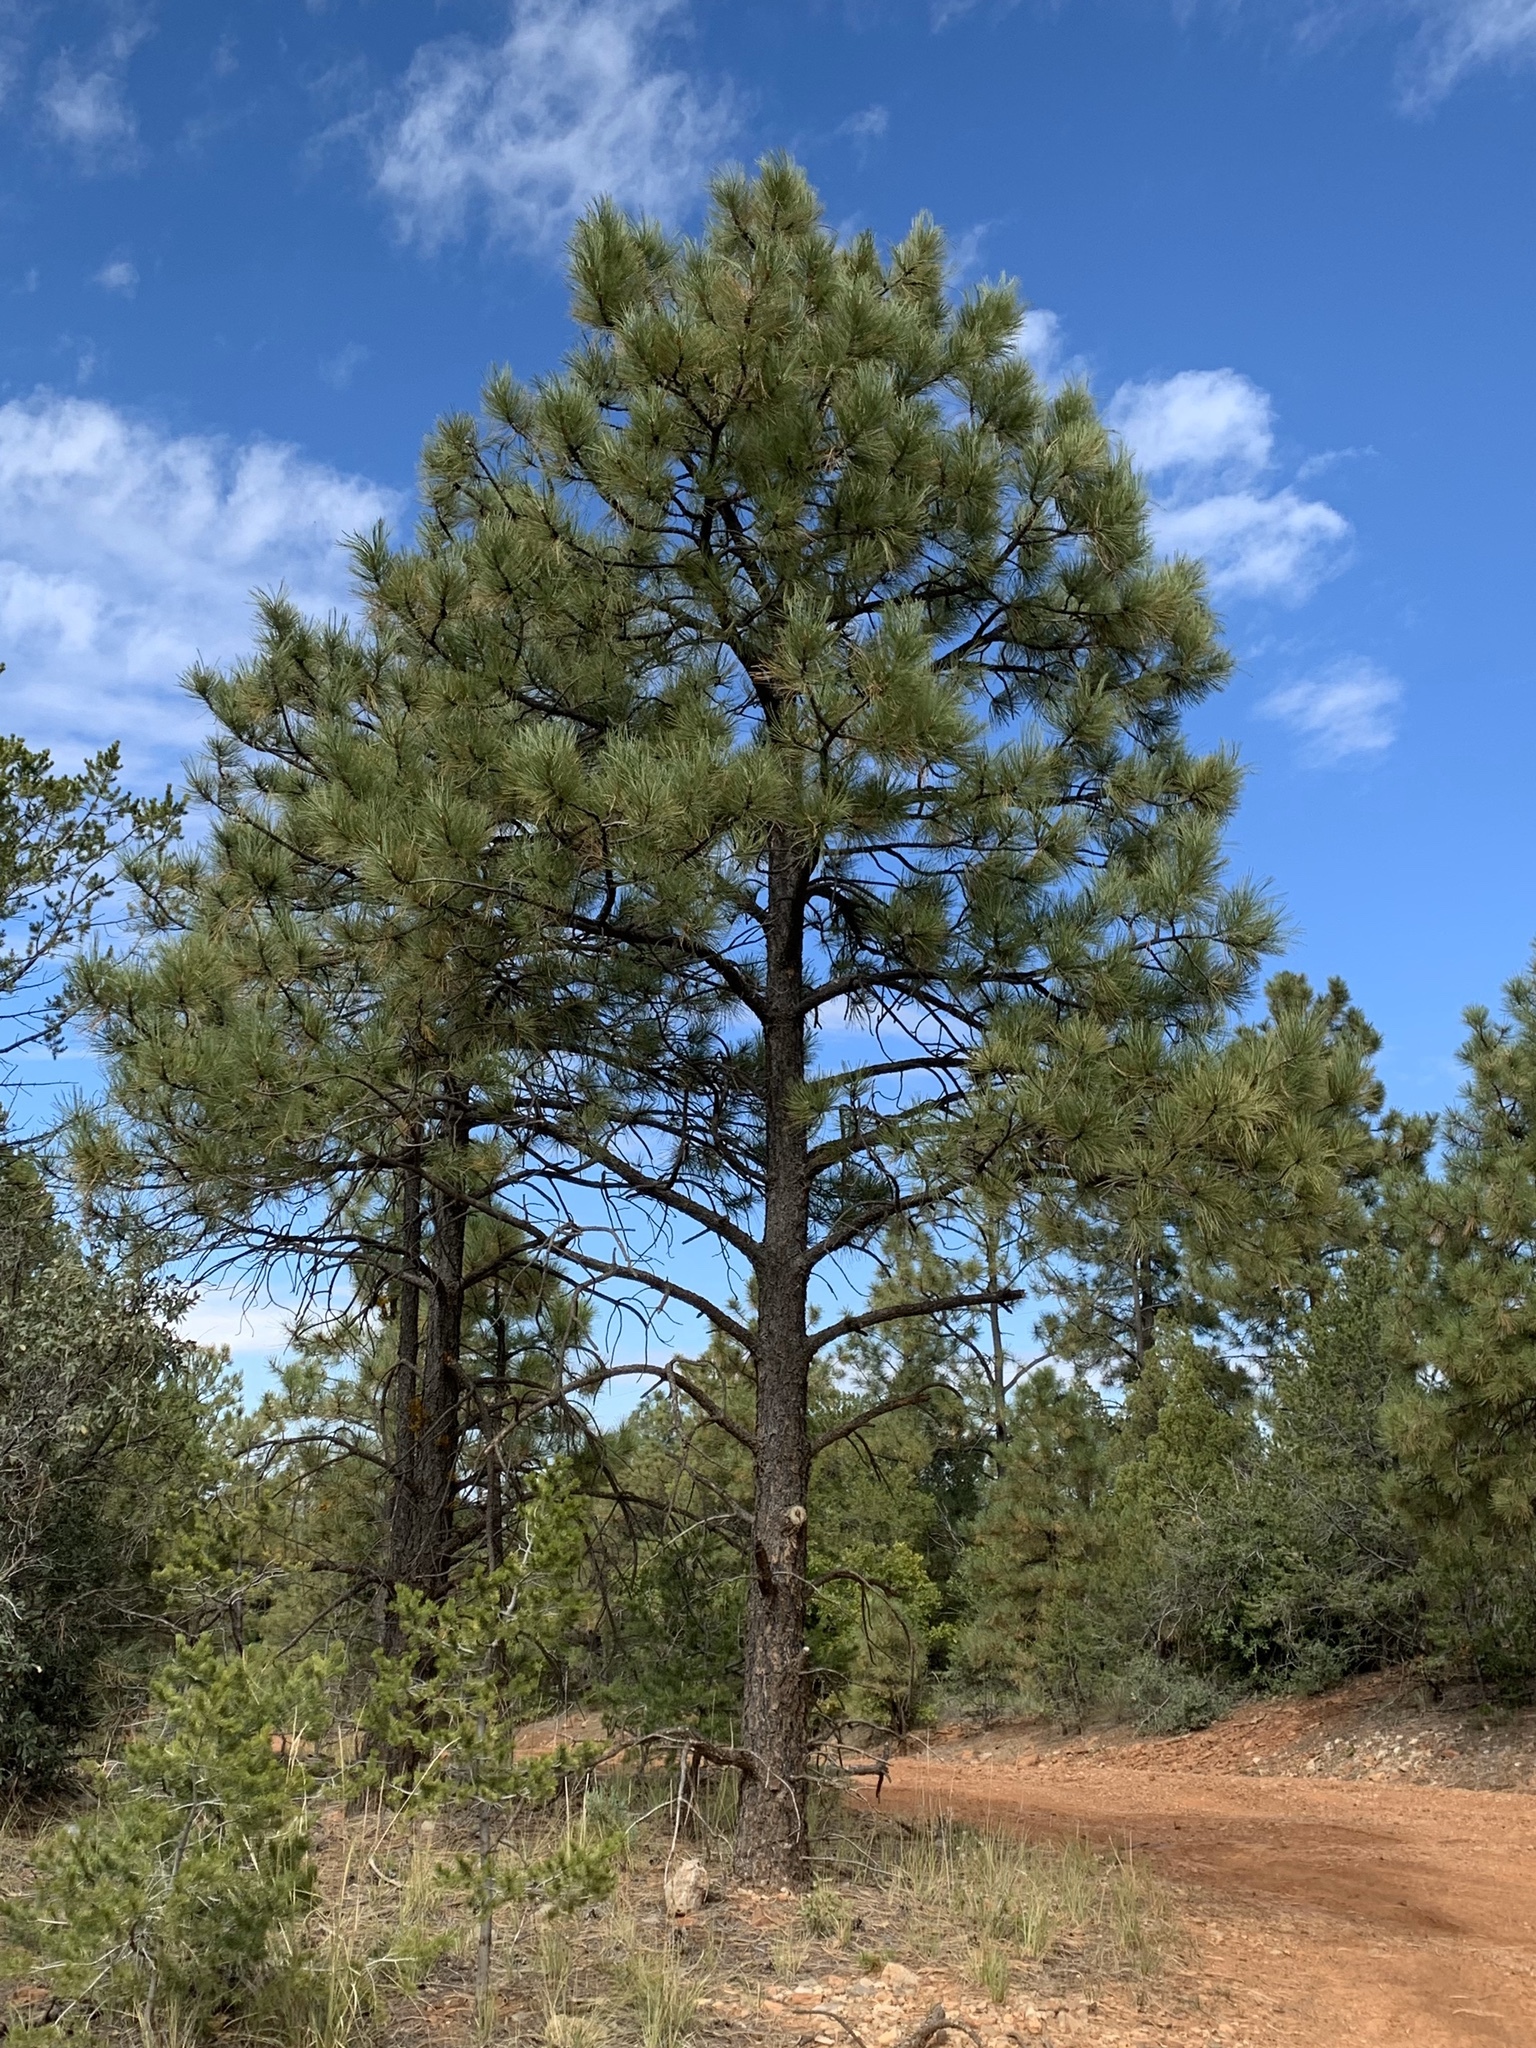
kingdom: Plantae
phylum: Tracheophyta
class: Pinopsida
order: Pinales
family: Pinaceae
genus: Pinus
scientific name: Pinus ponderosa
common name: Western yellow-pine
